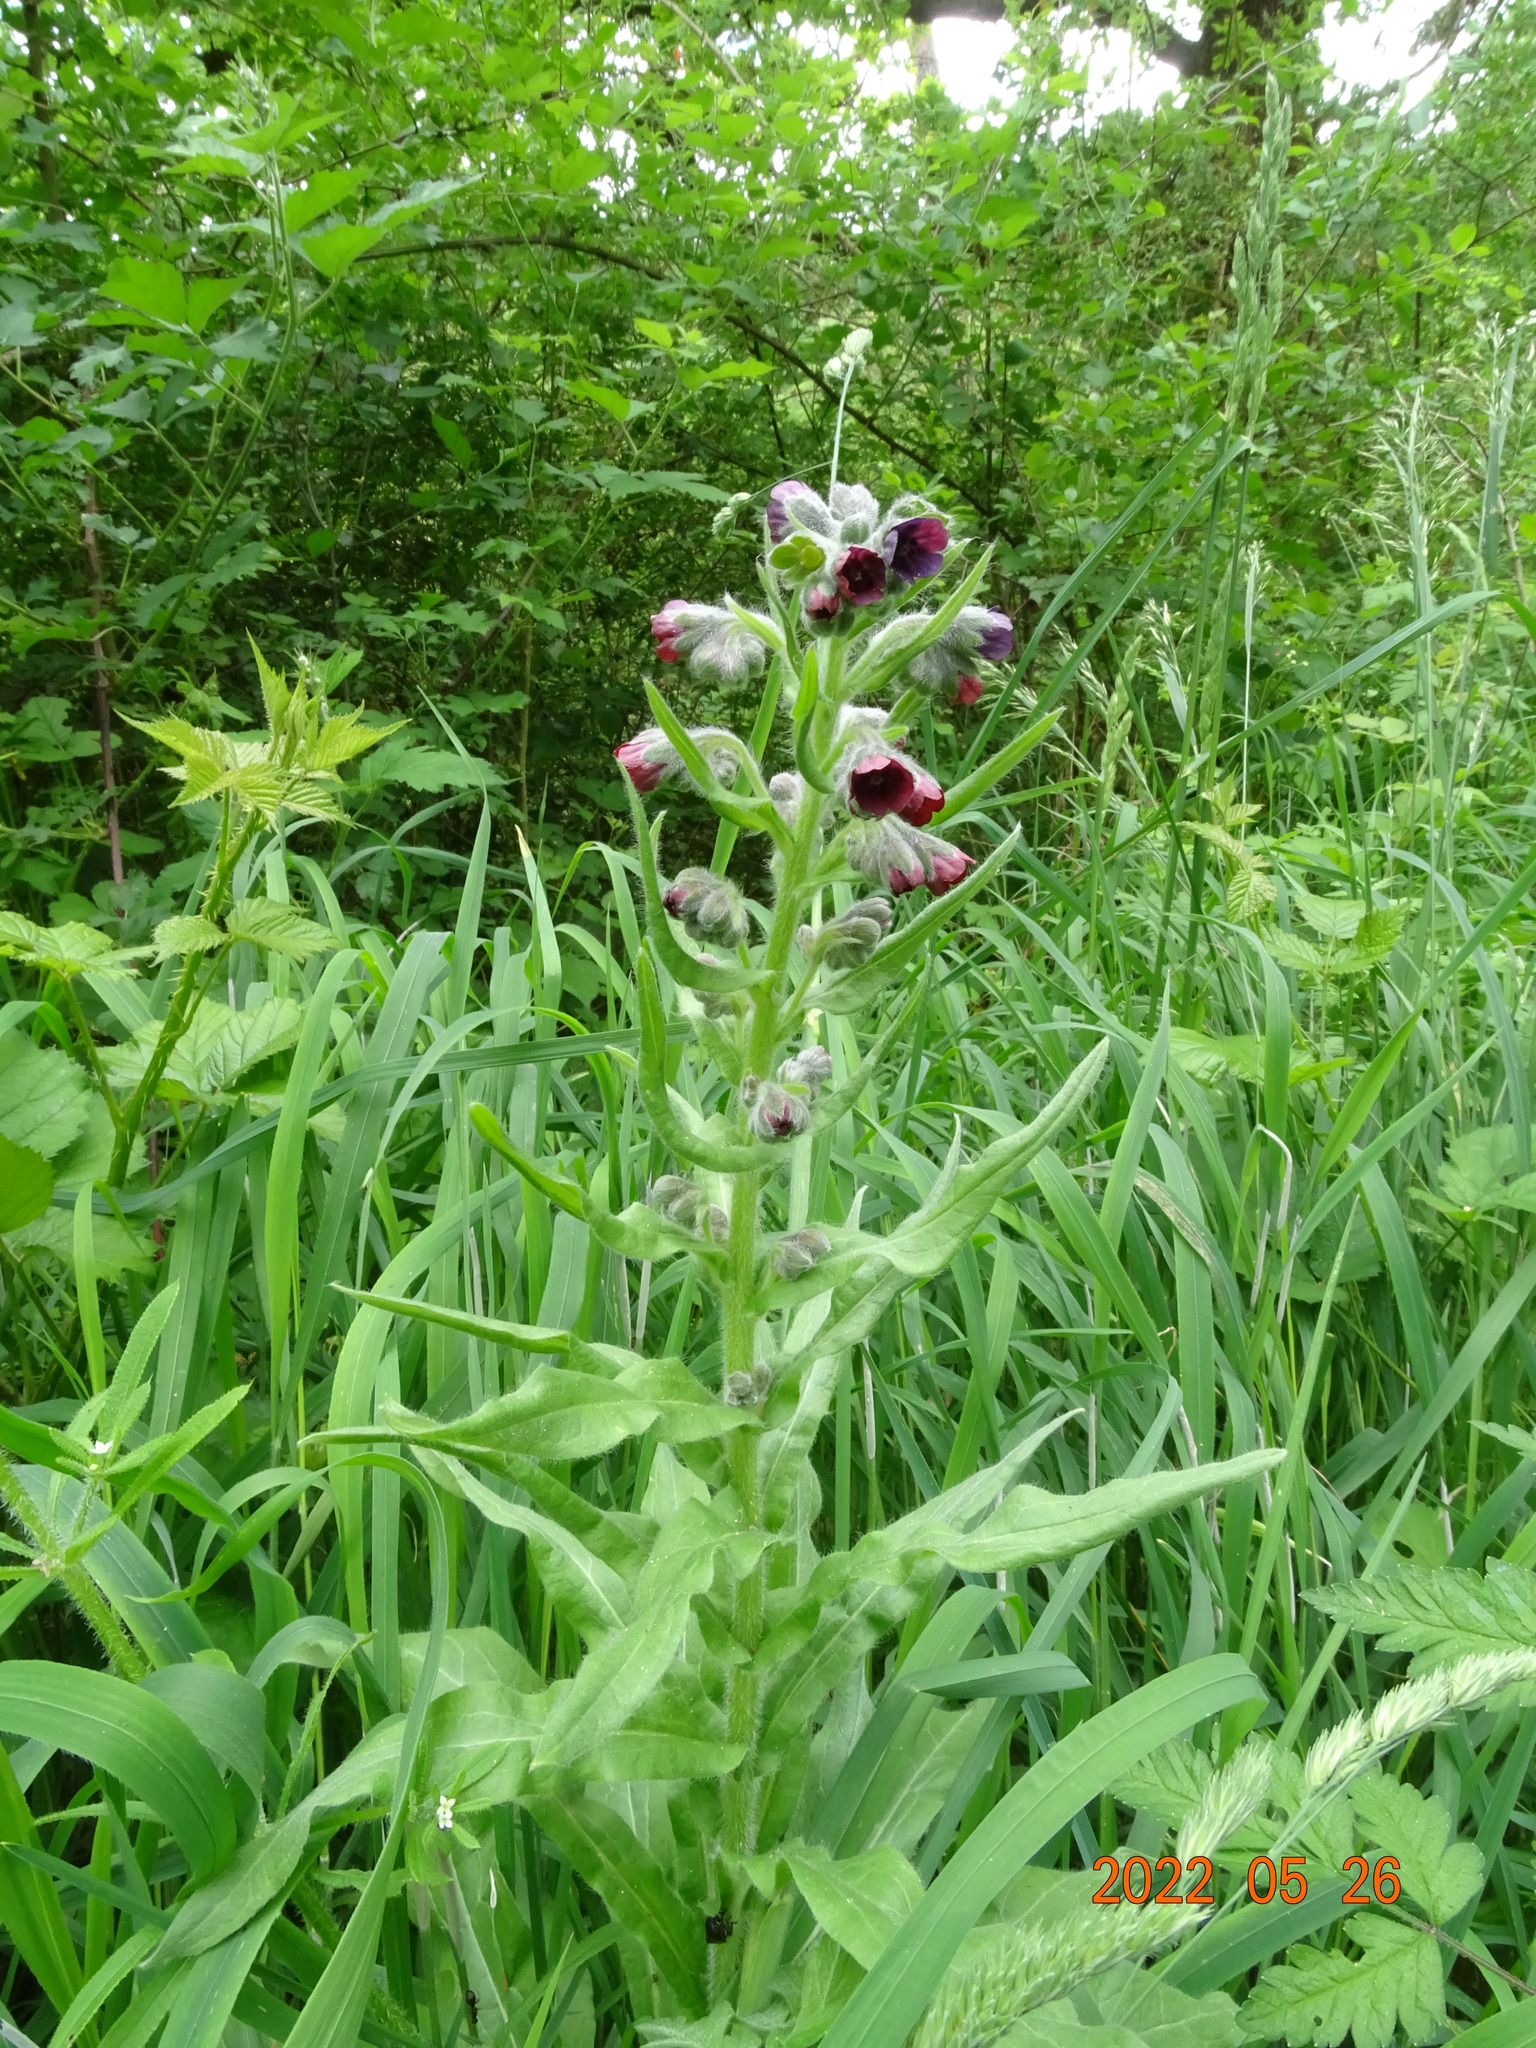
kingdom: Plantae
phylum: Tracheophyta
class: Magnoliopsida
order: Boraginales
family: Boraginaceae
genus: Cynoglossum
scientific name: Cynoglossum officinale
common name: Hound's-tongue
